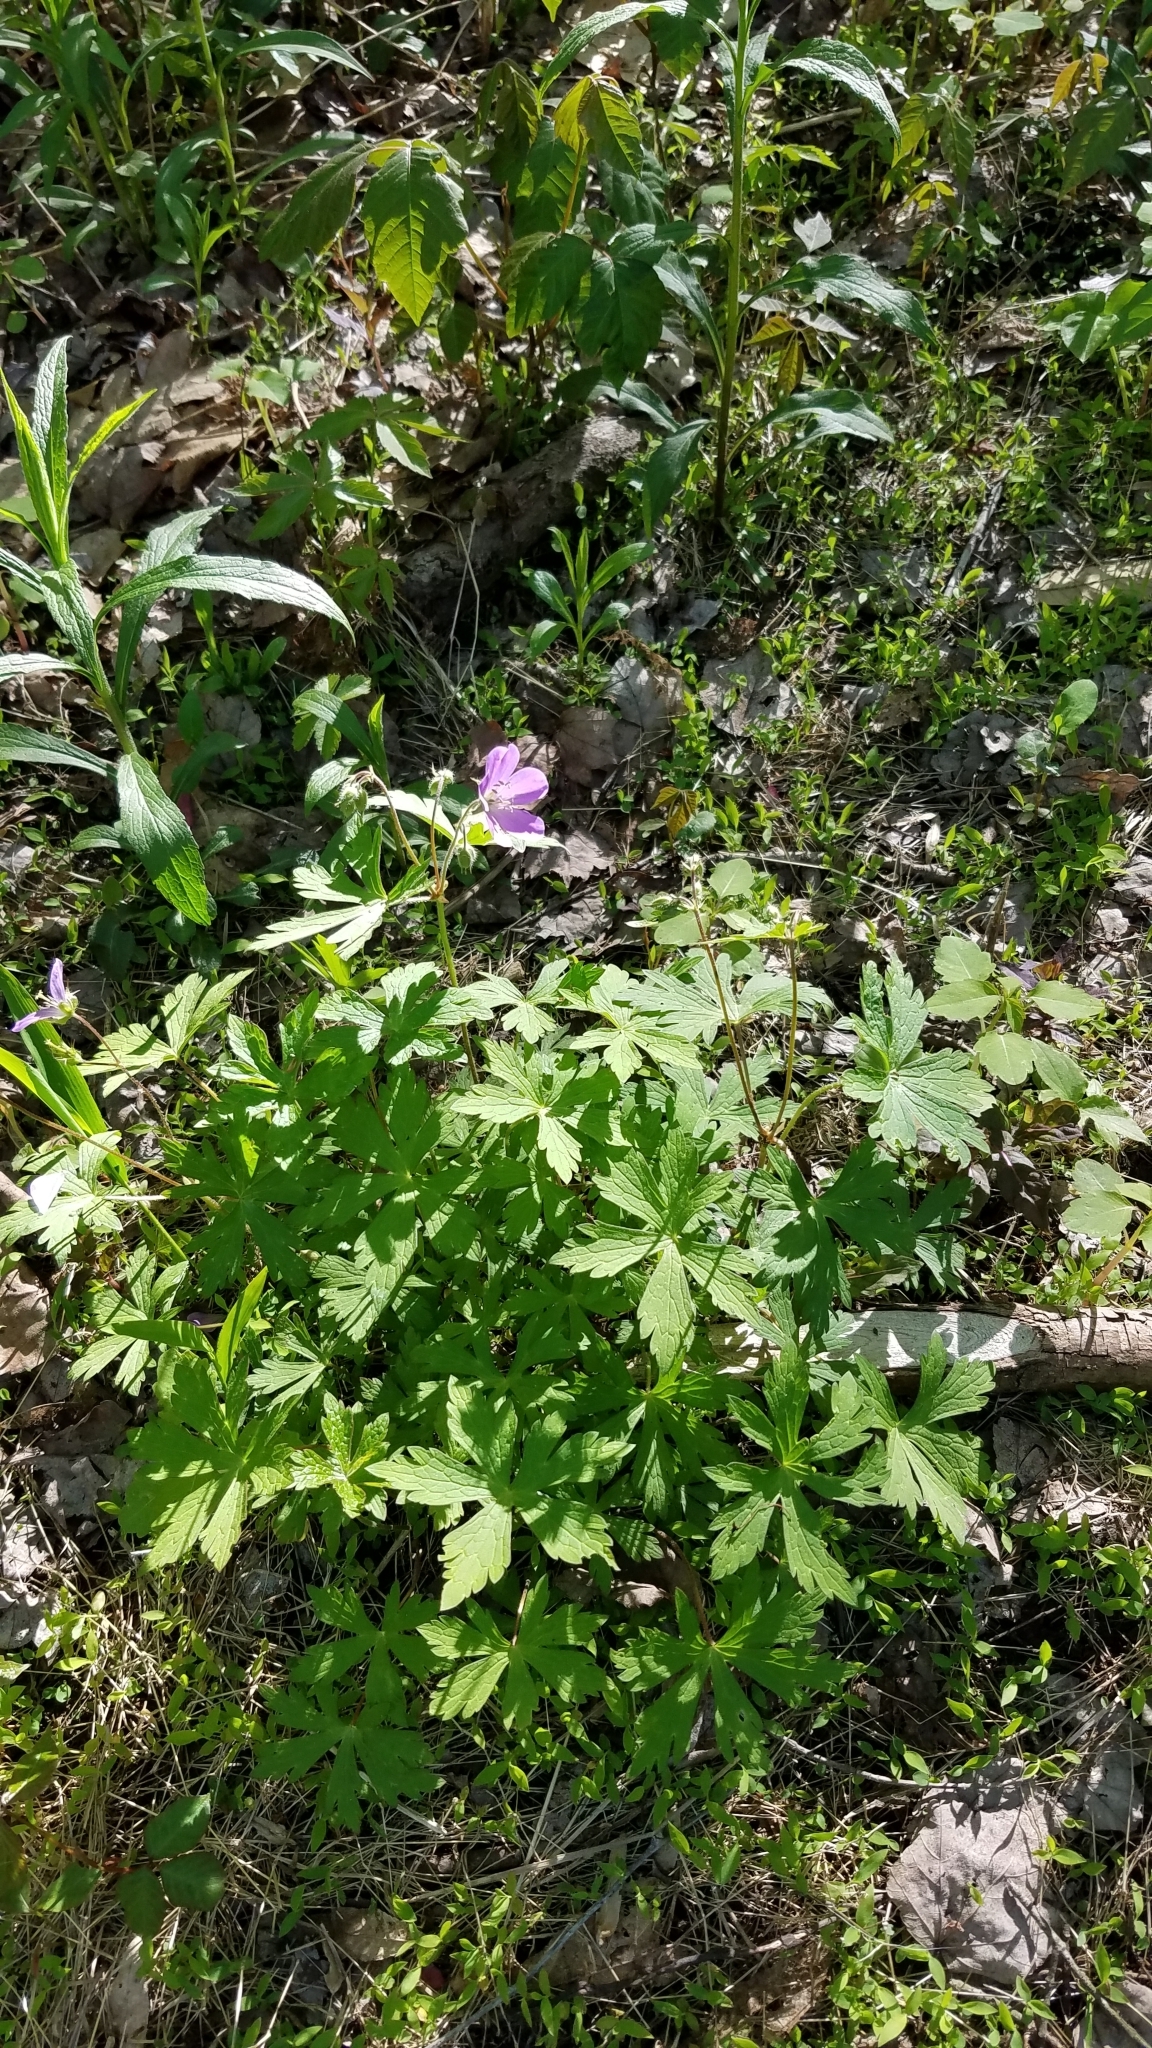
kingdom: Plantae
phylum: Tracheophyta
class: Magnoliopsida
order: Geraniales
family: Geraniaceae
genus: Geranium
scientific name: Geranium maculatum
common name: Spotted geranium
